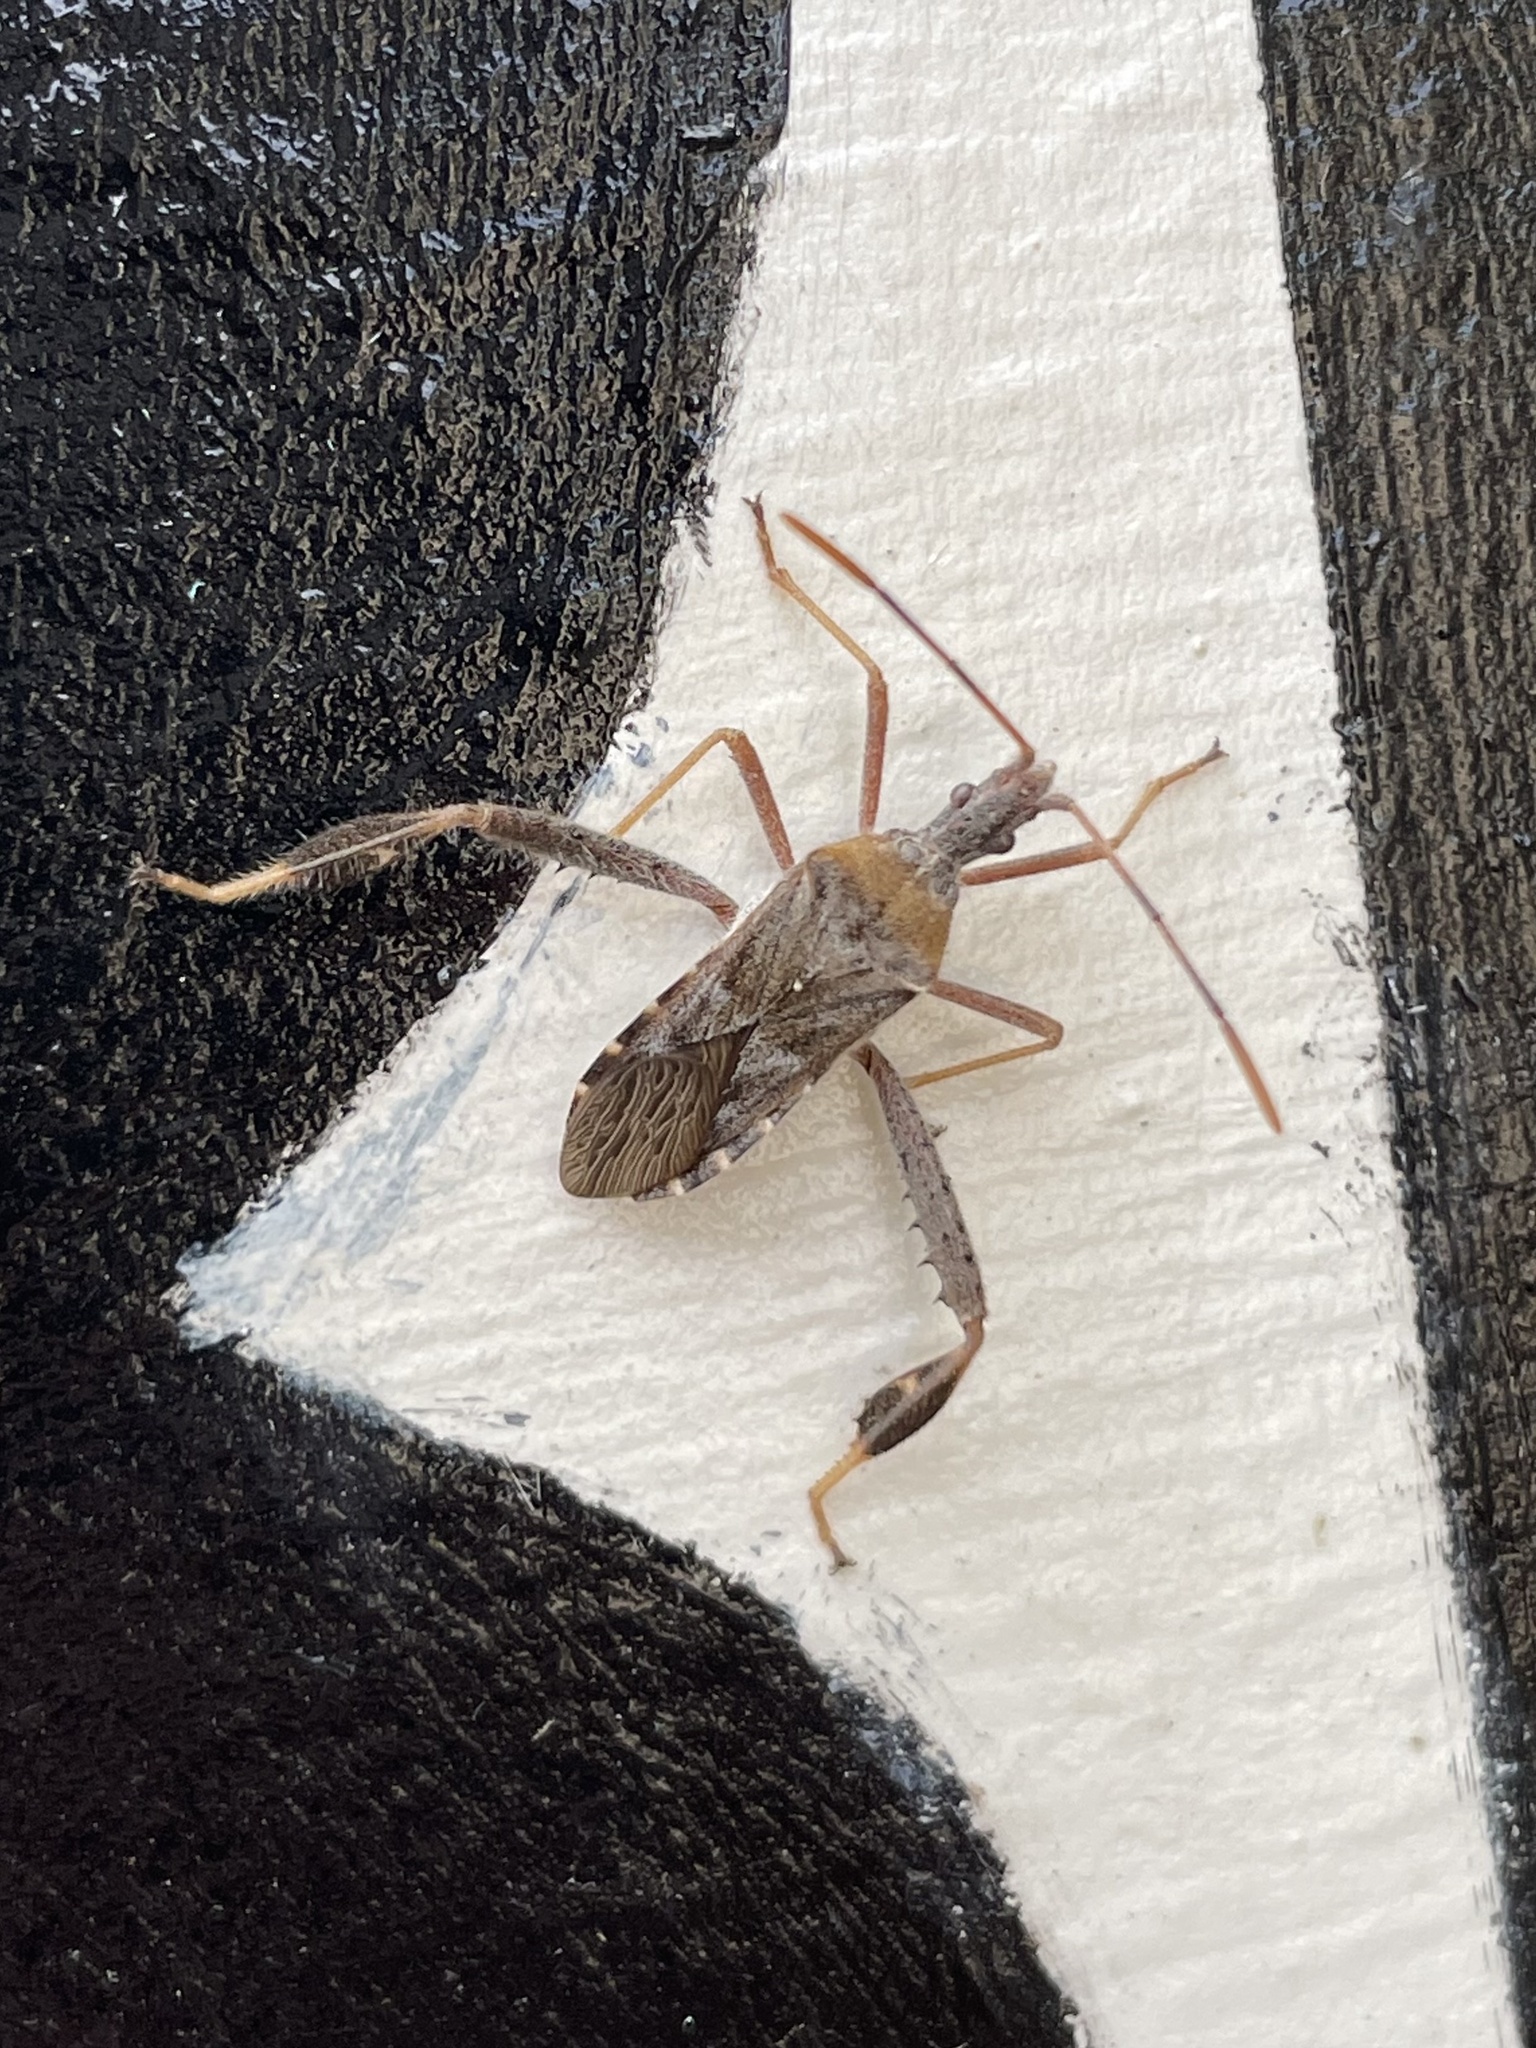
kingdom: Animalia
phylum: Arthropoda
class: Insecta
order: Hemiptera
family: Coreidae
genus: Narnia
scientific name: Narnia femorata
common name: Leaf-footed cactus bug
